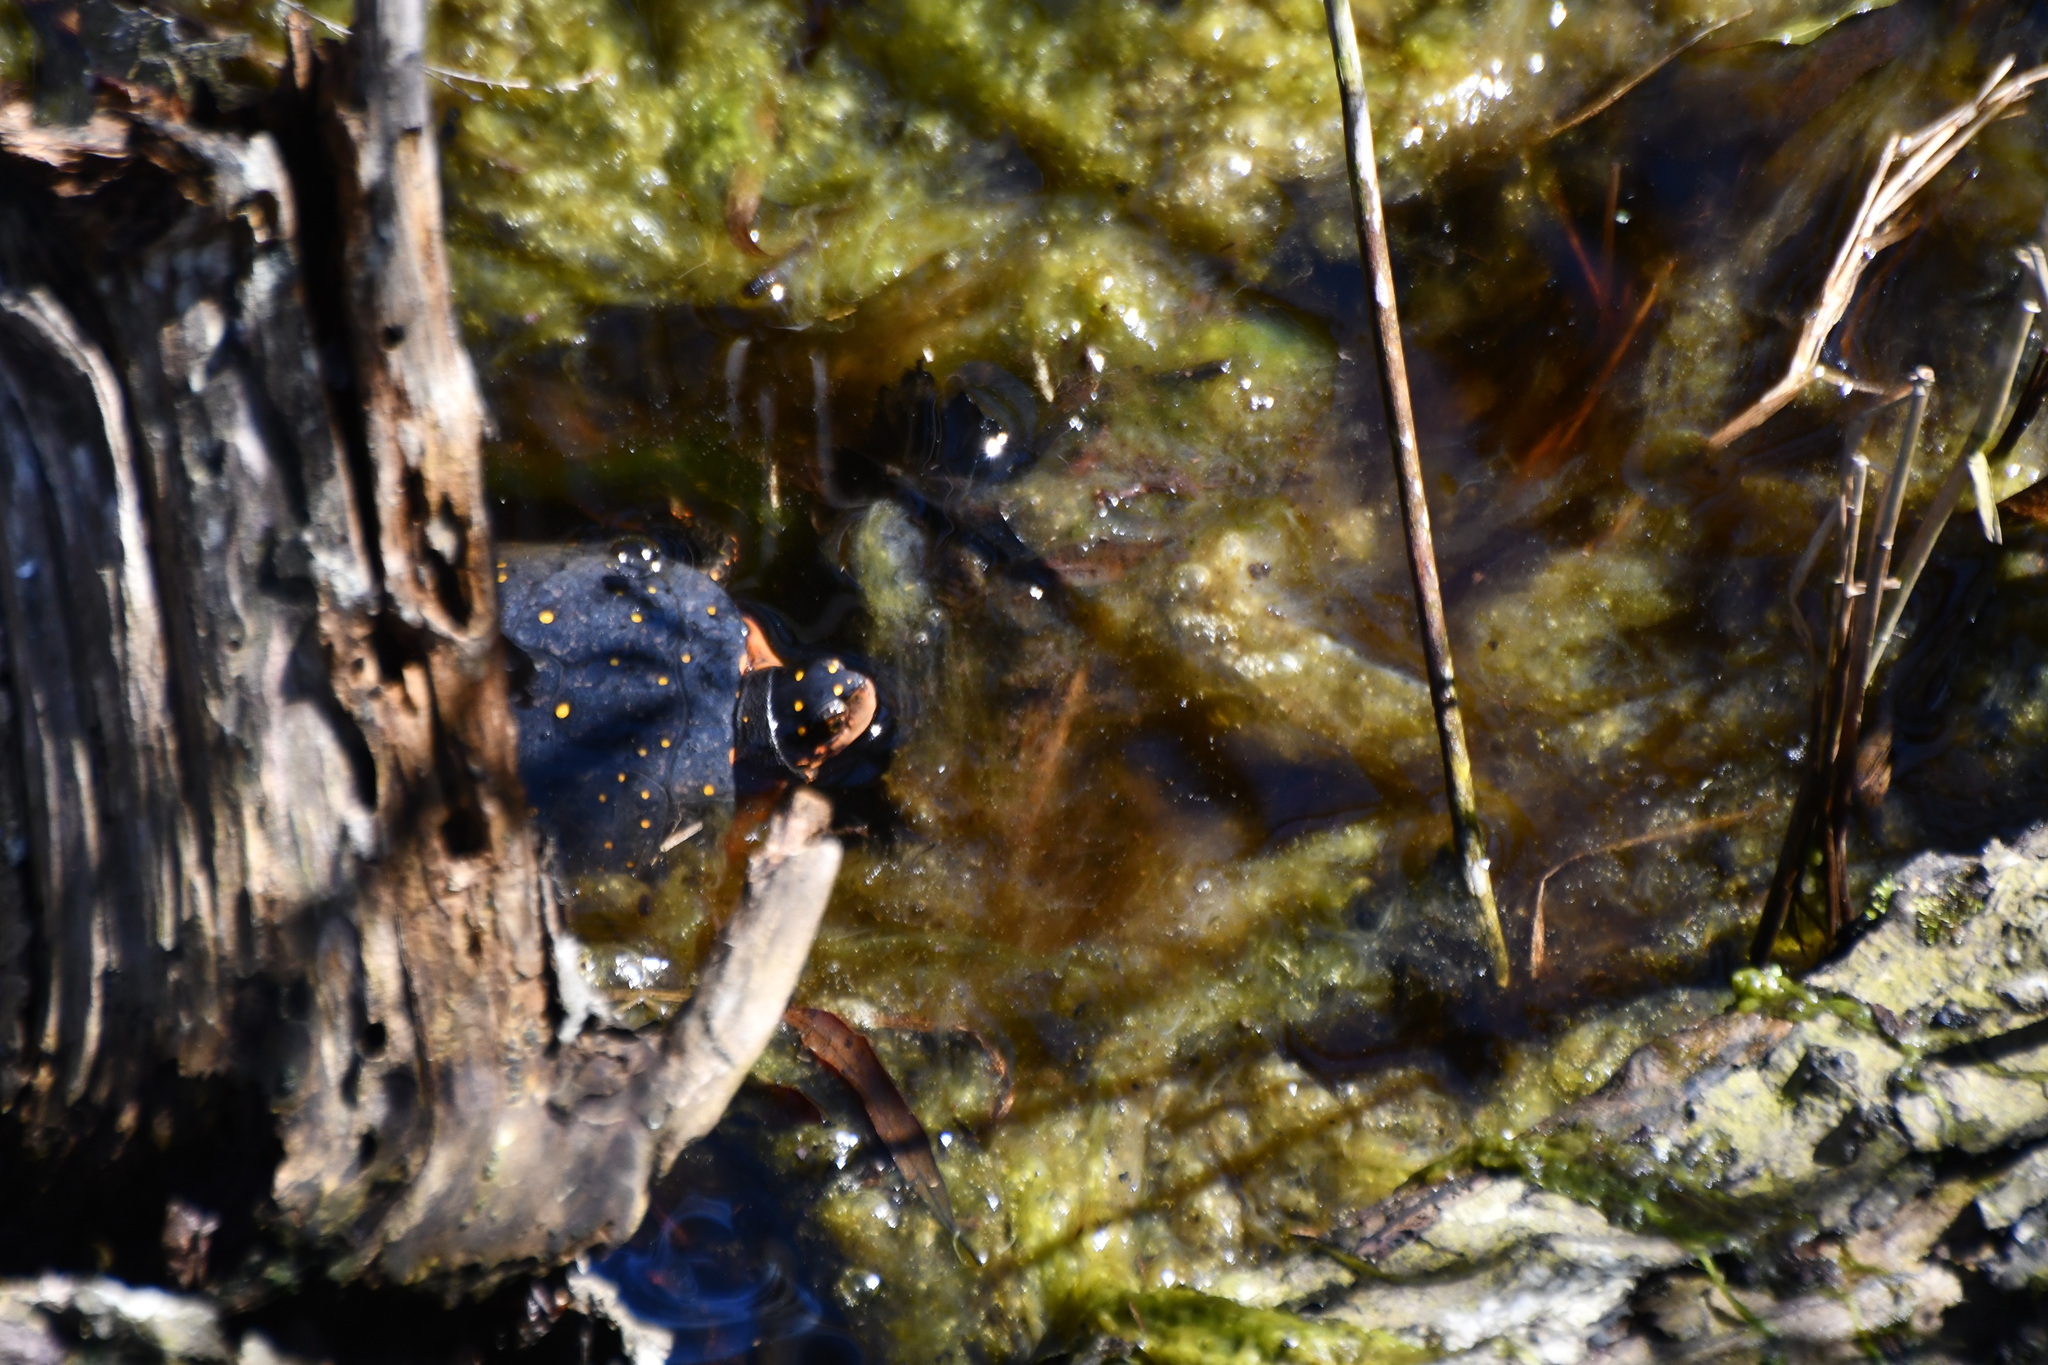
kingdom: Animalia
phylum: Chordata
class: Testudines
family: Emydidae
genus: Clemmys
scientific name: Clemmys guttata
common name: Spotted turtle
